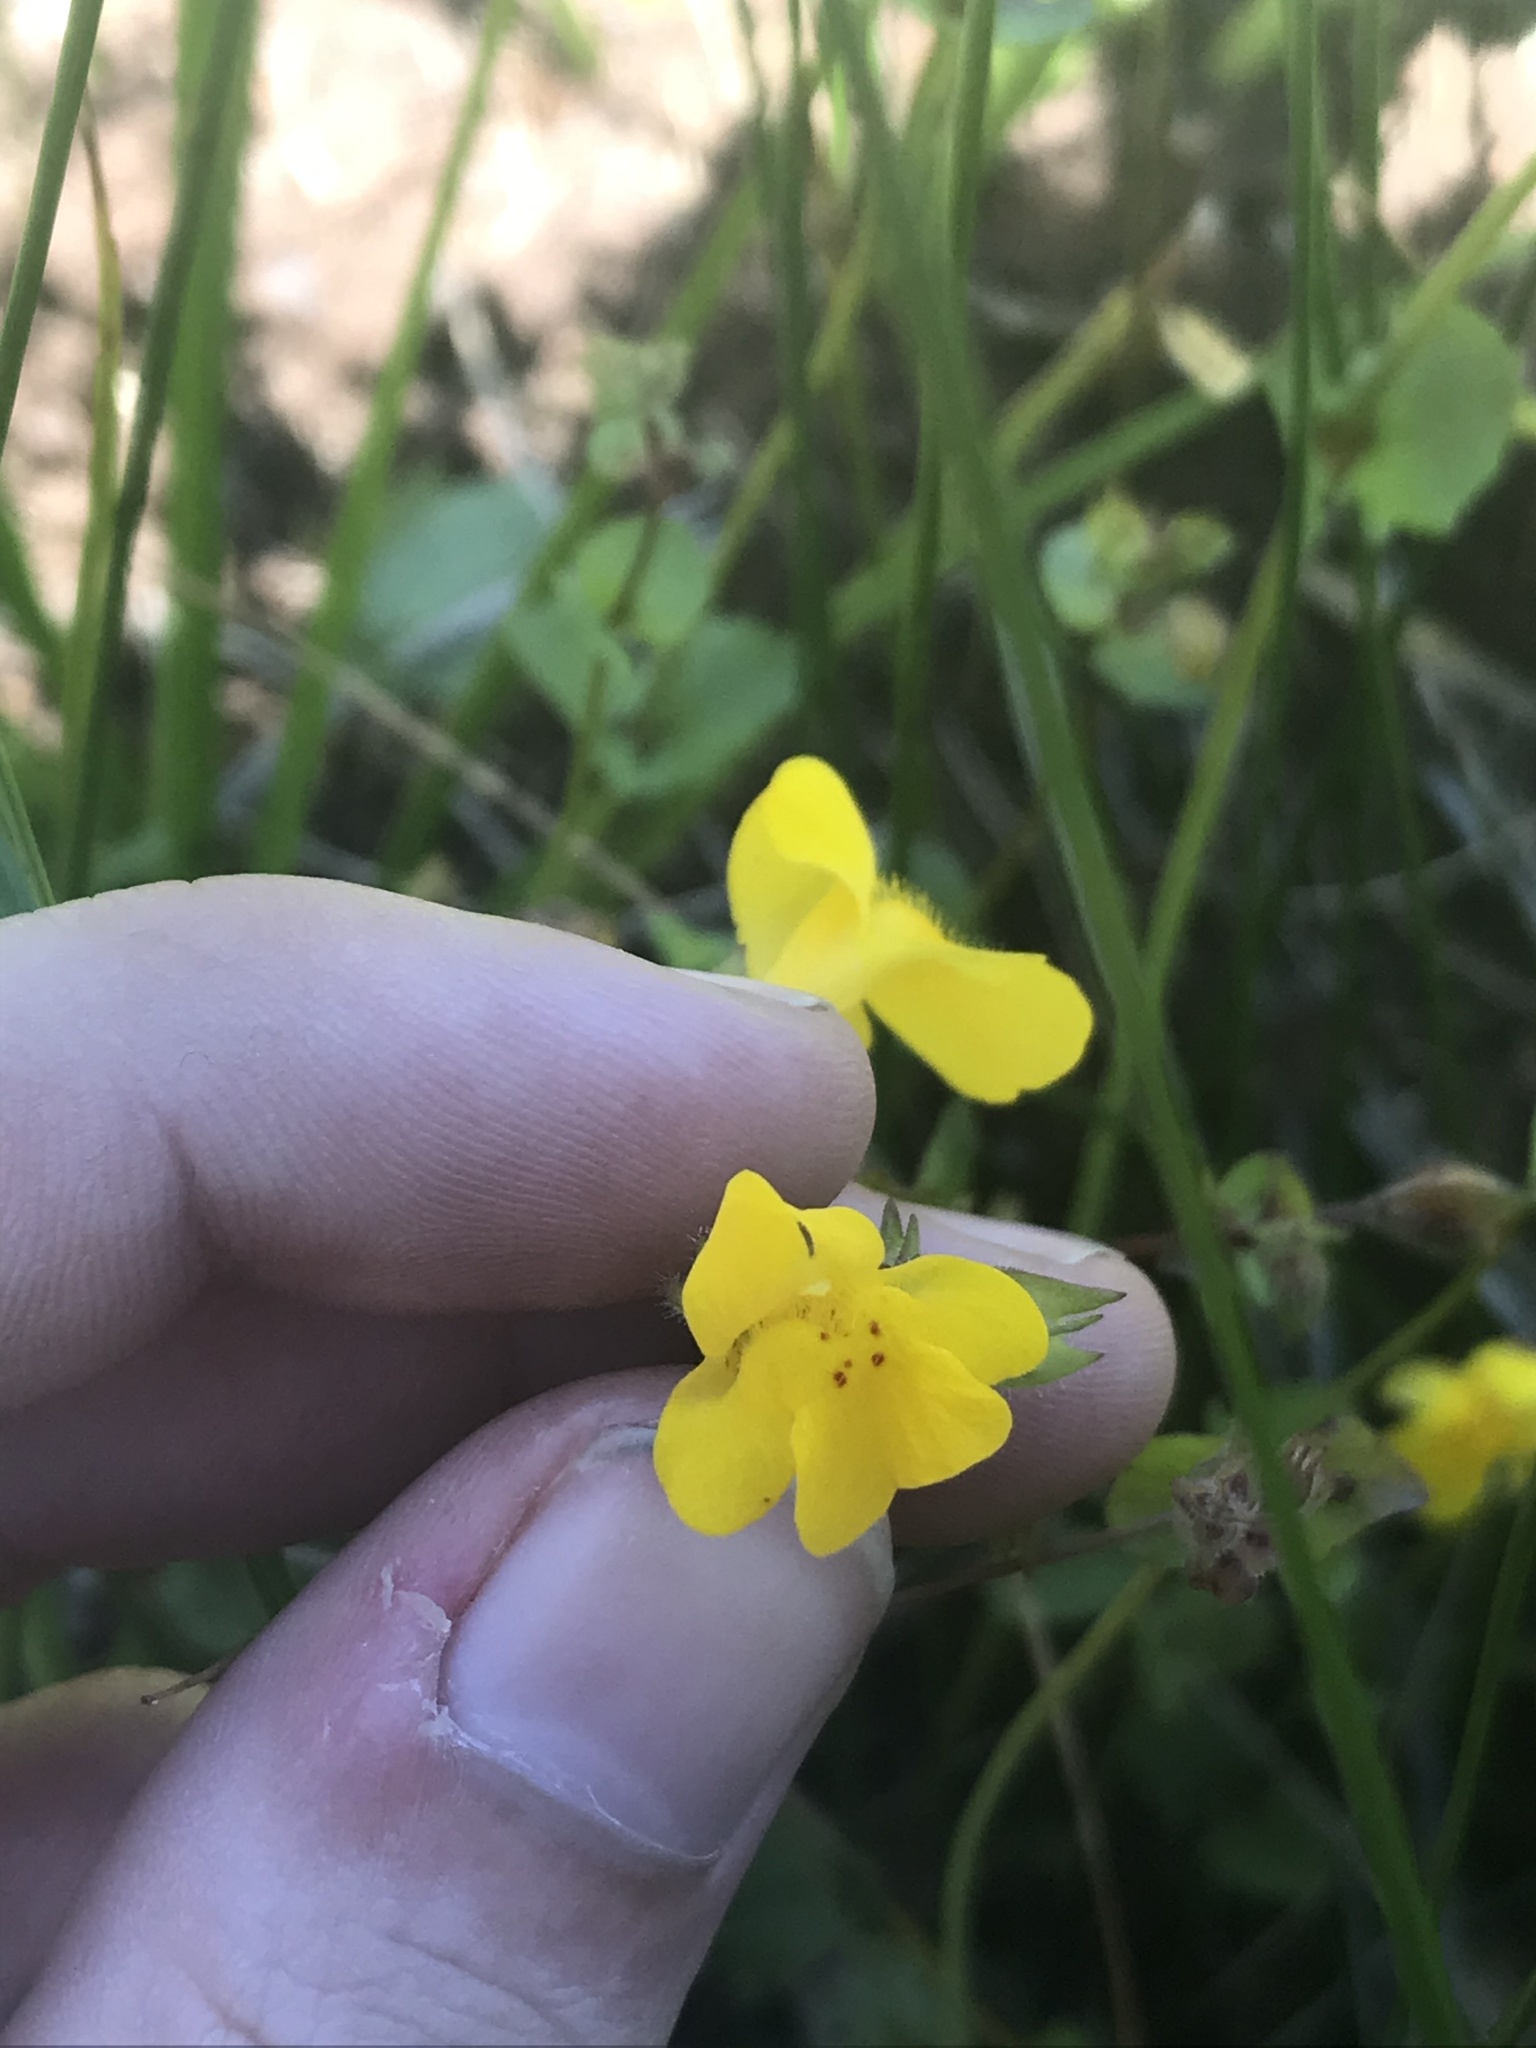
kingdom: Plantae
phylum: Tracheophyta
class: Magnoliopsida
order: Lamiales
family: Phrymaceae
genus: Erythranthe
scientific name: Erythranthe microphylla
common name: Bentham's monkeyflower
